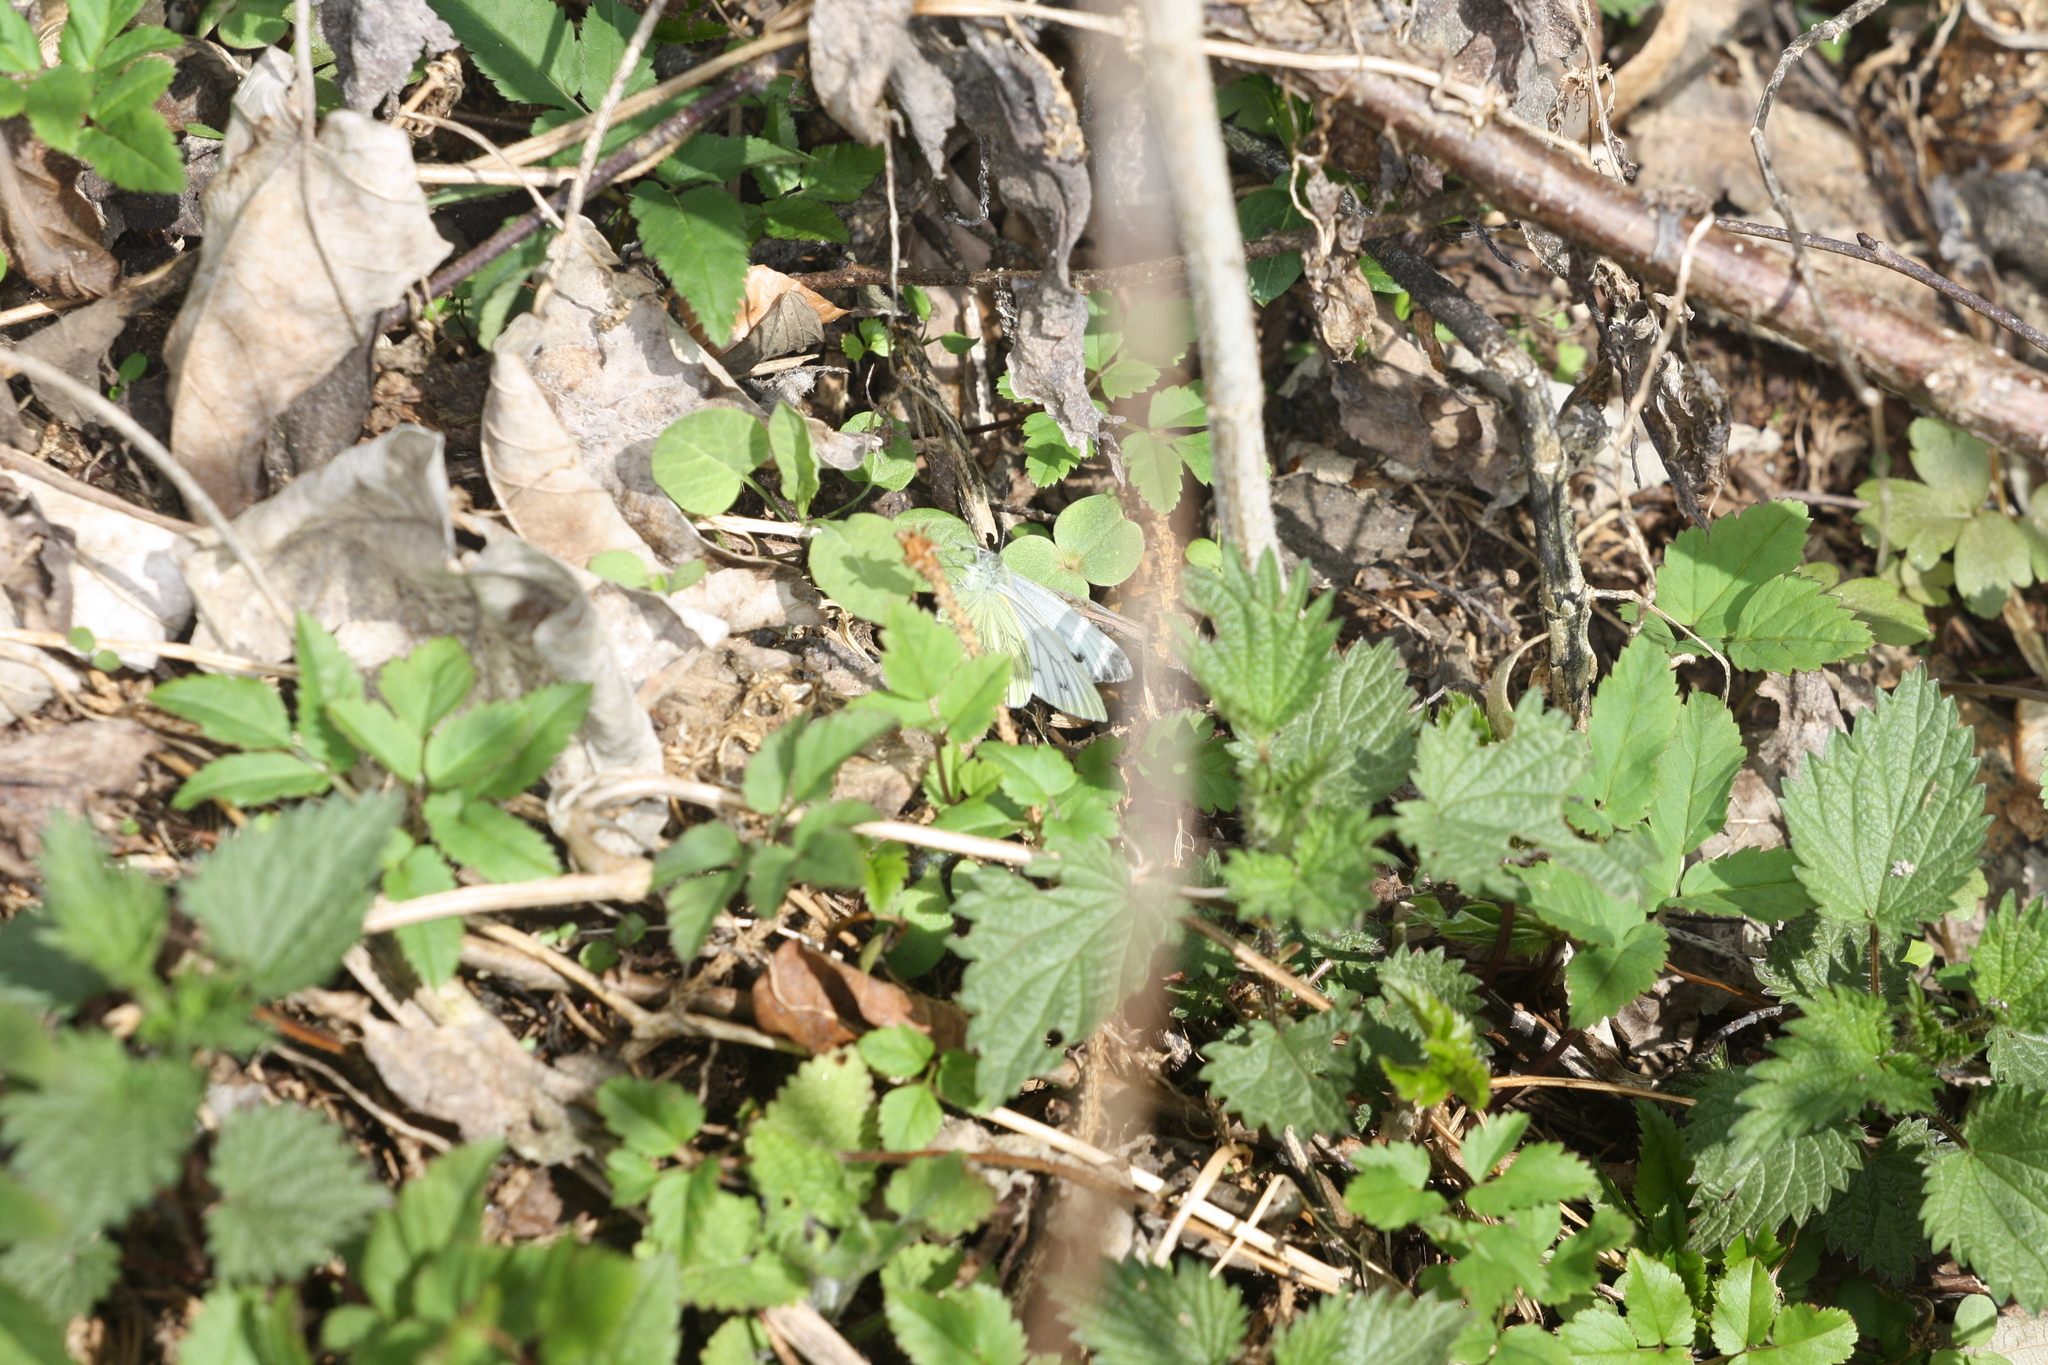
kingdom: Animalia
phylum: Arthropoda
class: Insecta
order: Lepidoptera
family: Pieridae
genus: Pieris
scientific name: Pieris napi
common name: Green-veined white
